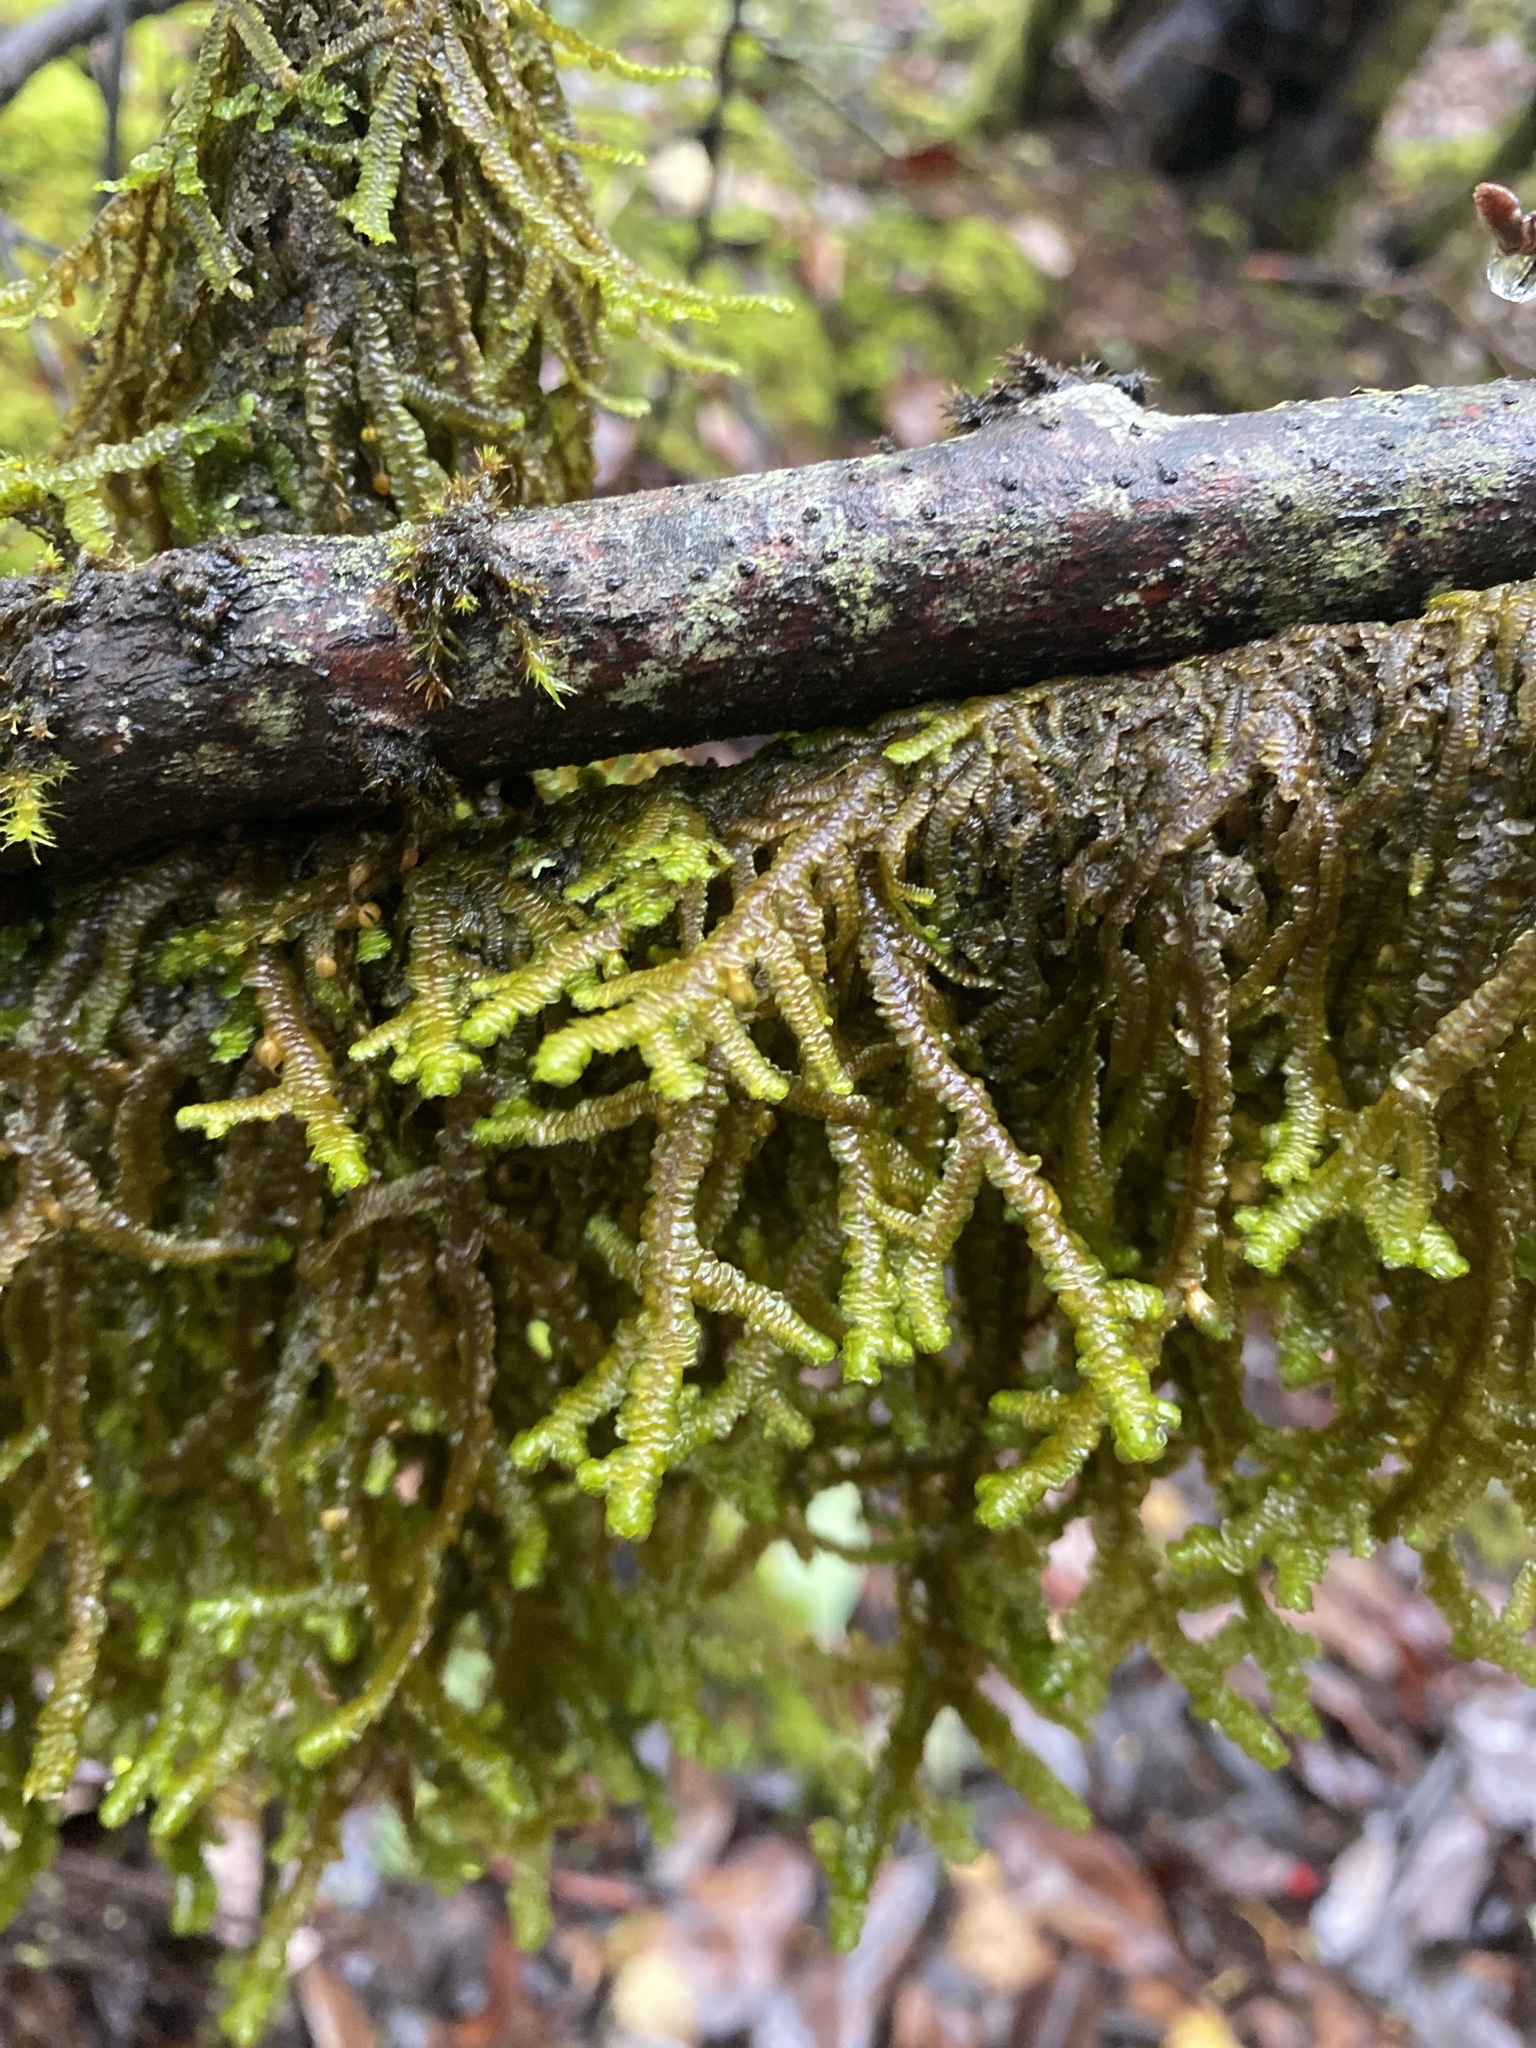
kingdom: Plantae
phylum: Marchantiophyta
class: Jungermanniopsida
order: Porellales
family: Porellaceae
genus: Porella
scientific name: Porella navicularis
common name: Tree ruffle liverwort
